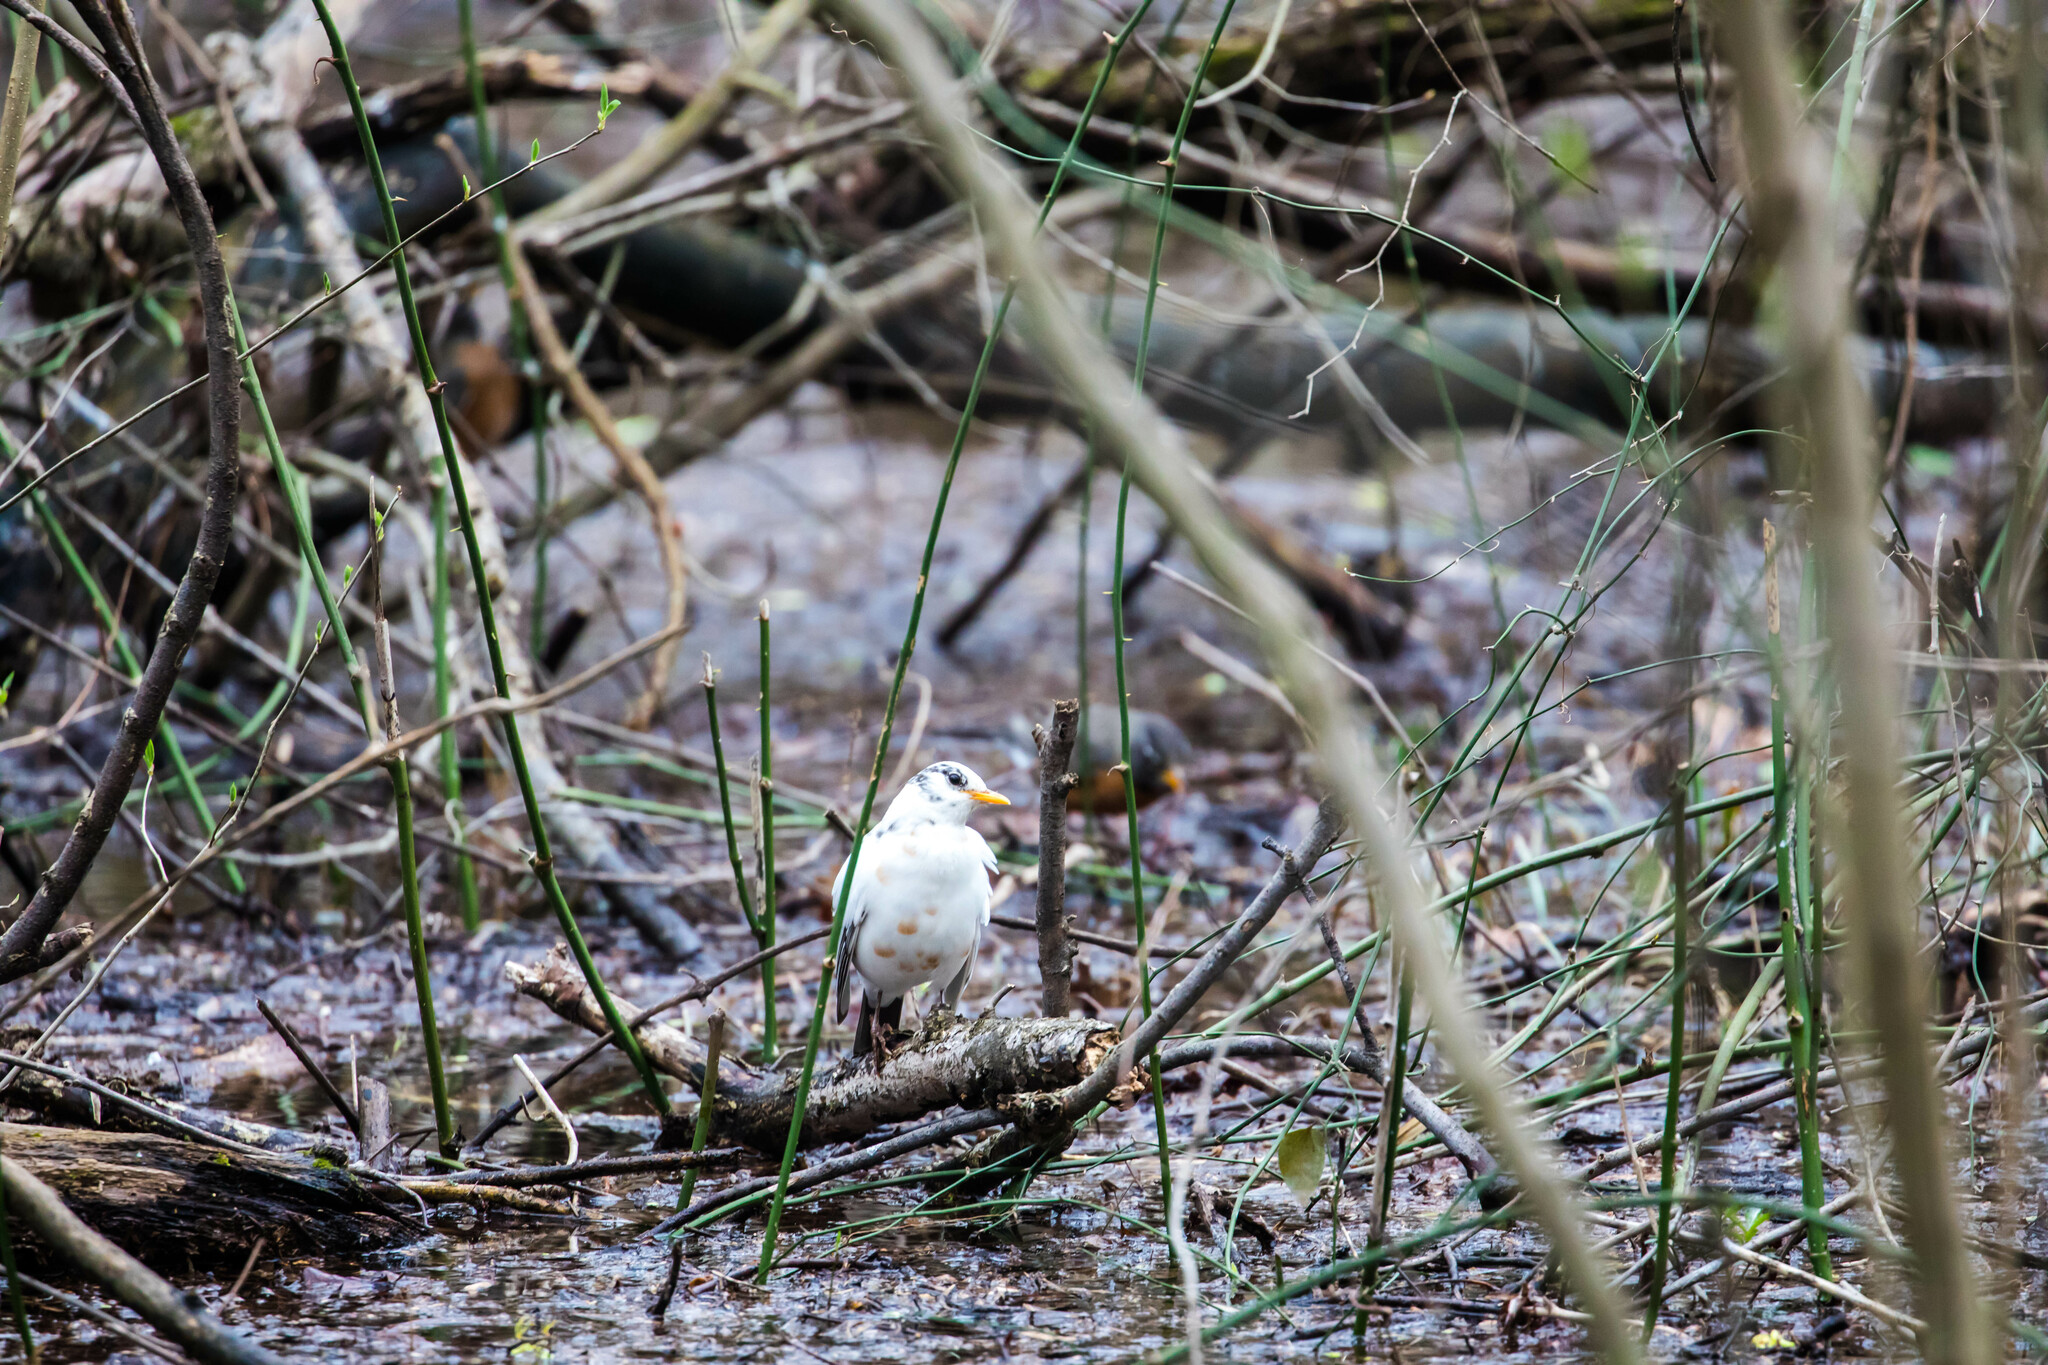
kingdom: Animalia
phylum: Chordata
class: Aves
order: Passeriformes
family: Turdidae
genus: Turdus
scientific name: Turdus migratorius
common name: American robin
